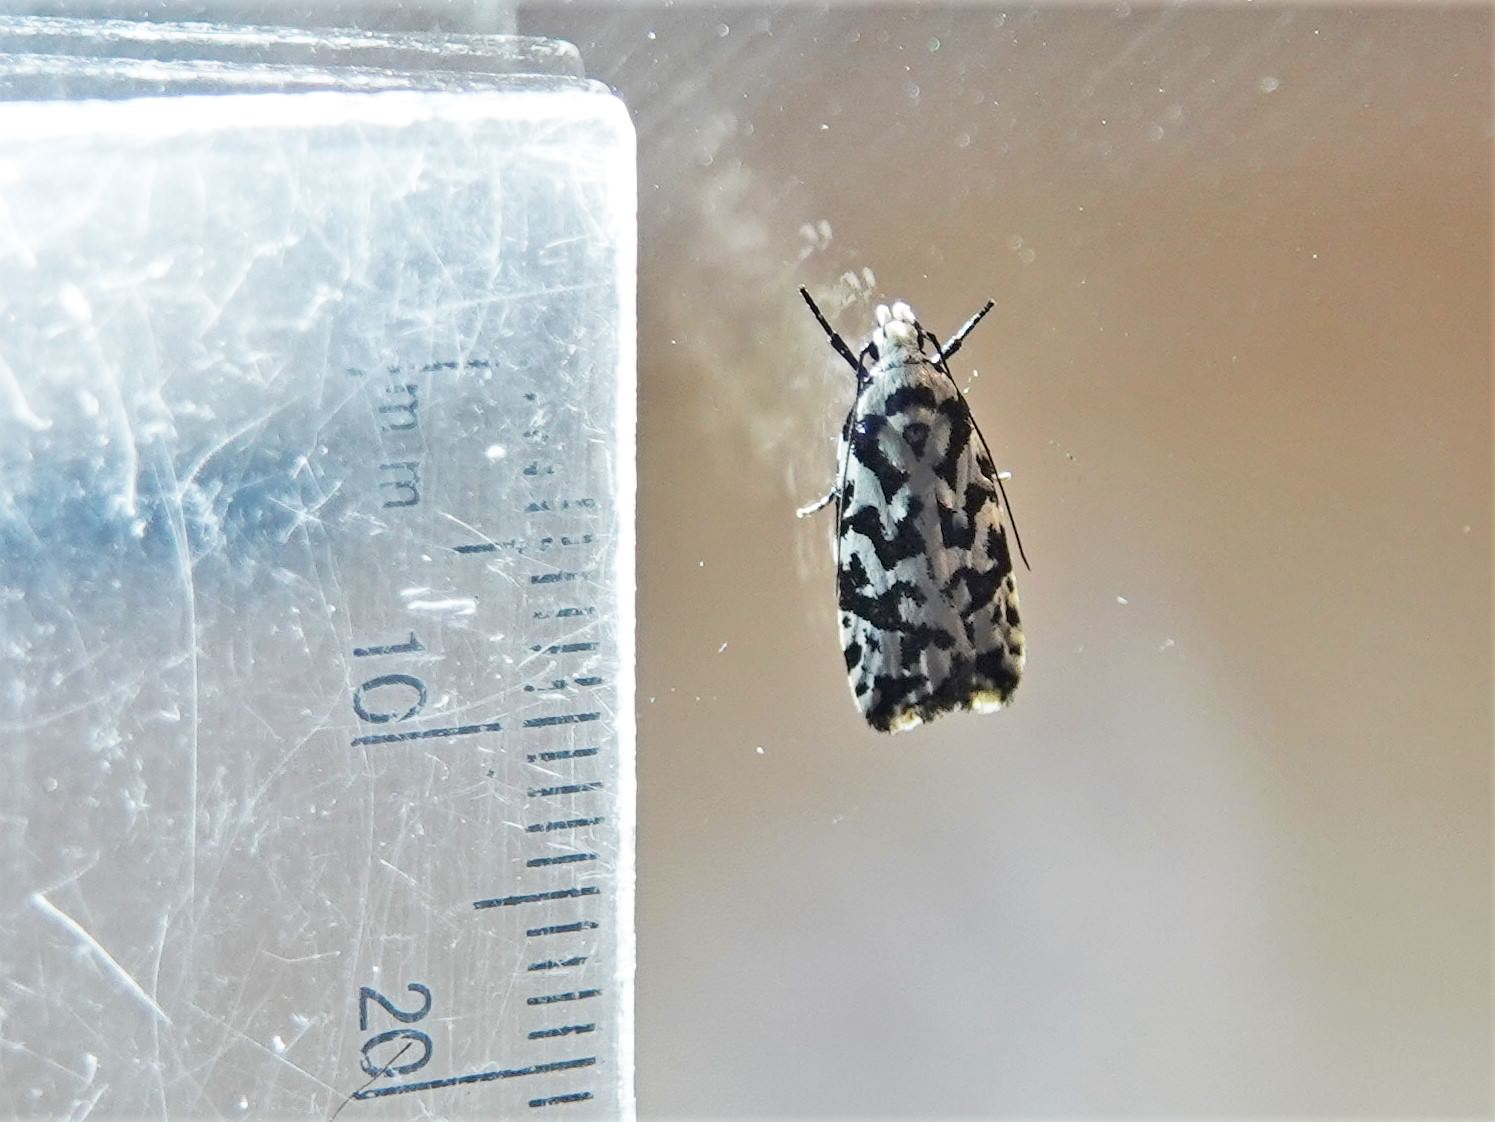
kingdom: Animalia
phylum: Arthropoda
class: Insecta
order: Lepidoptera
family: Oecophoridae
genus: Izatha
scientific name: Izatha
